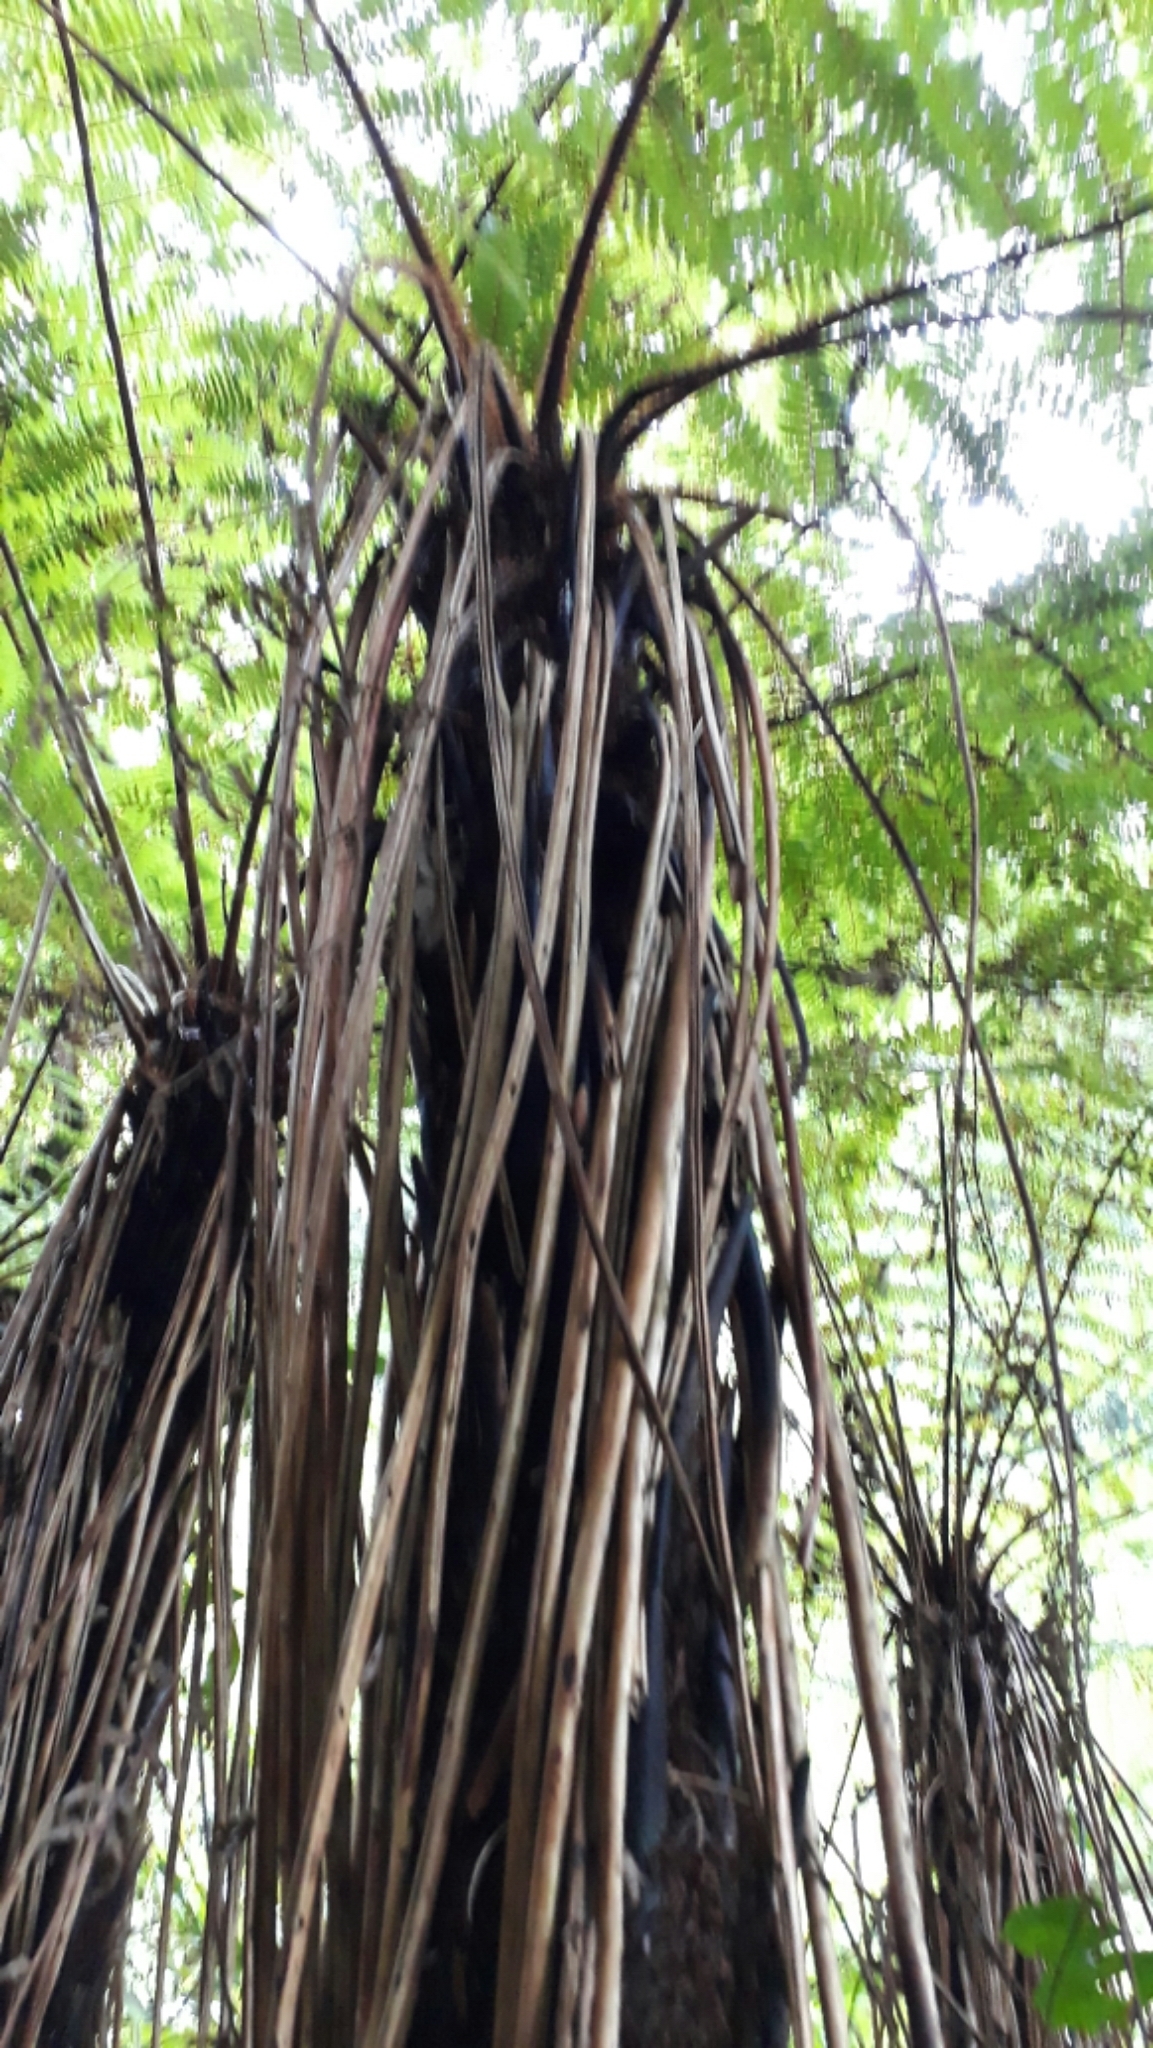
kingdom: Plantae
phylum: Tracheophyta
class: Polypodiopsida
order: Cyatheales
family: Cyatheaceae
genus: Alsophila
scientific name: Alsophila smithii
